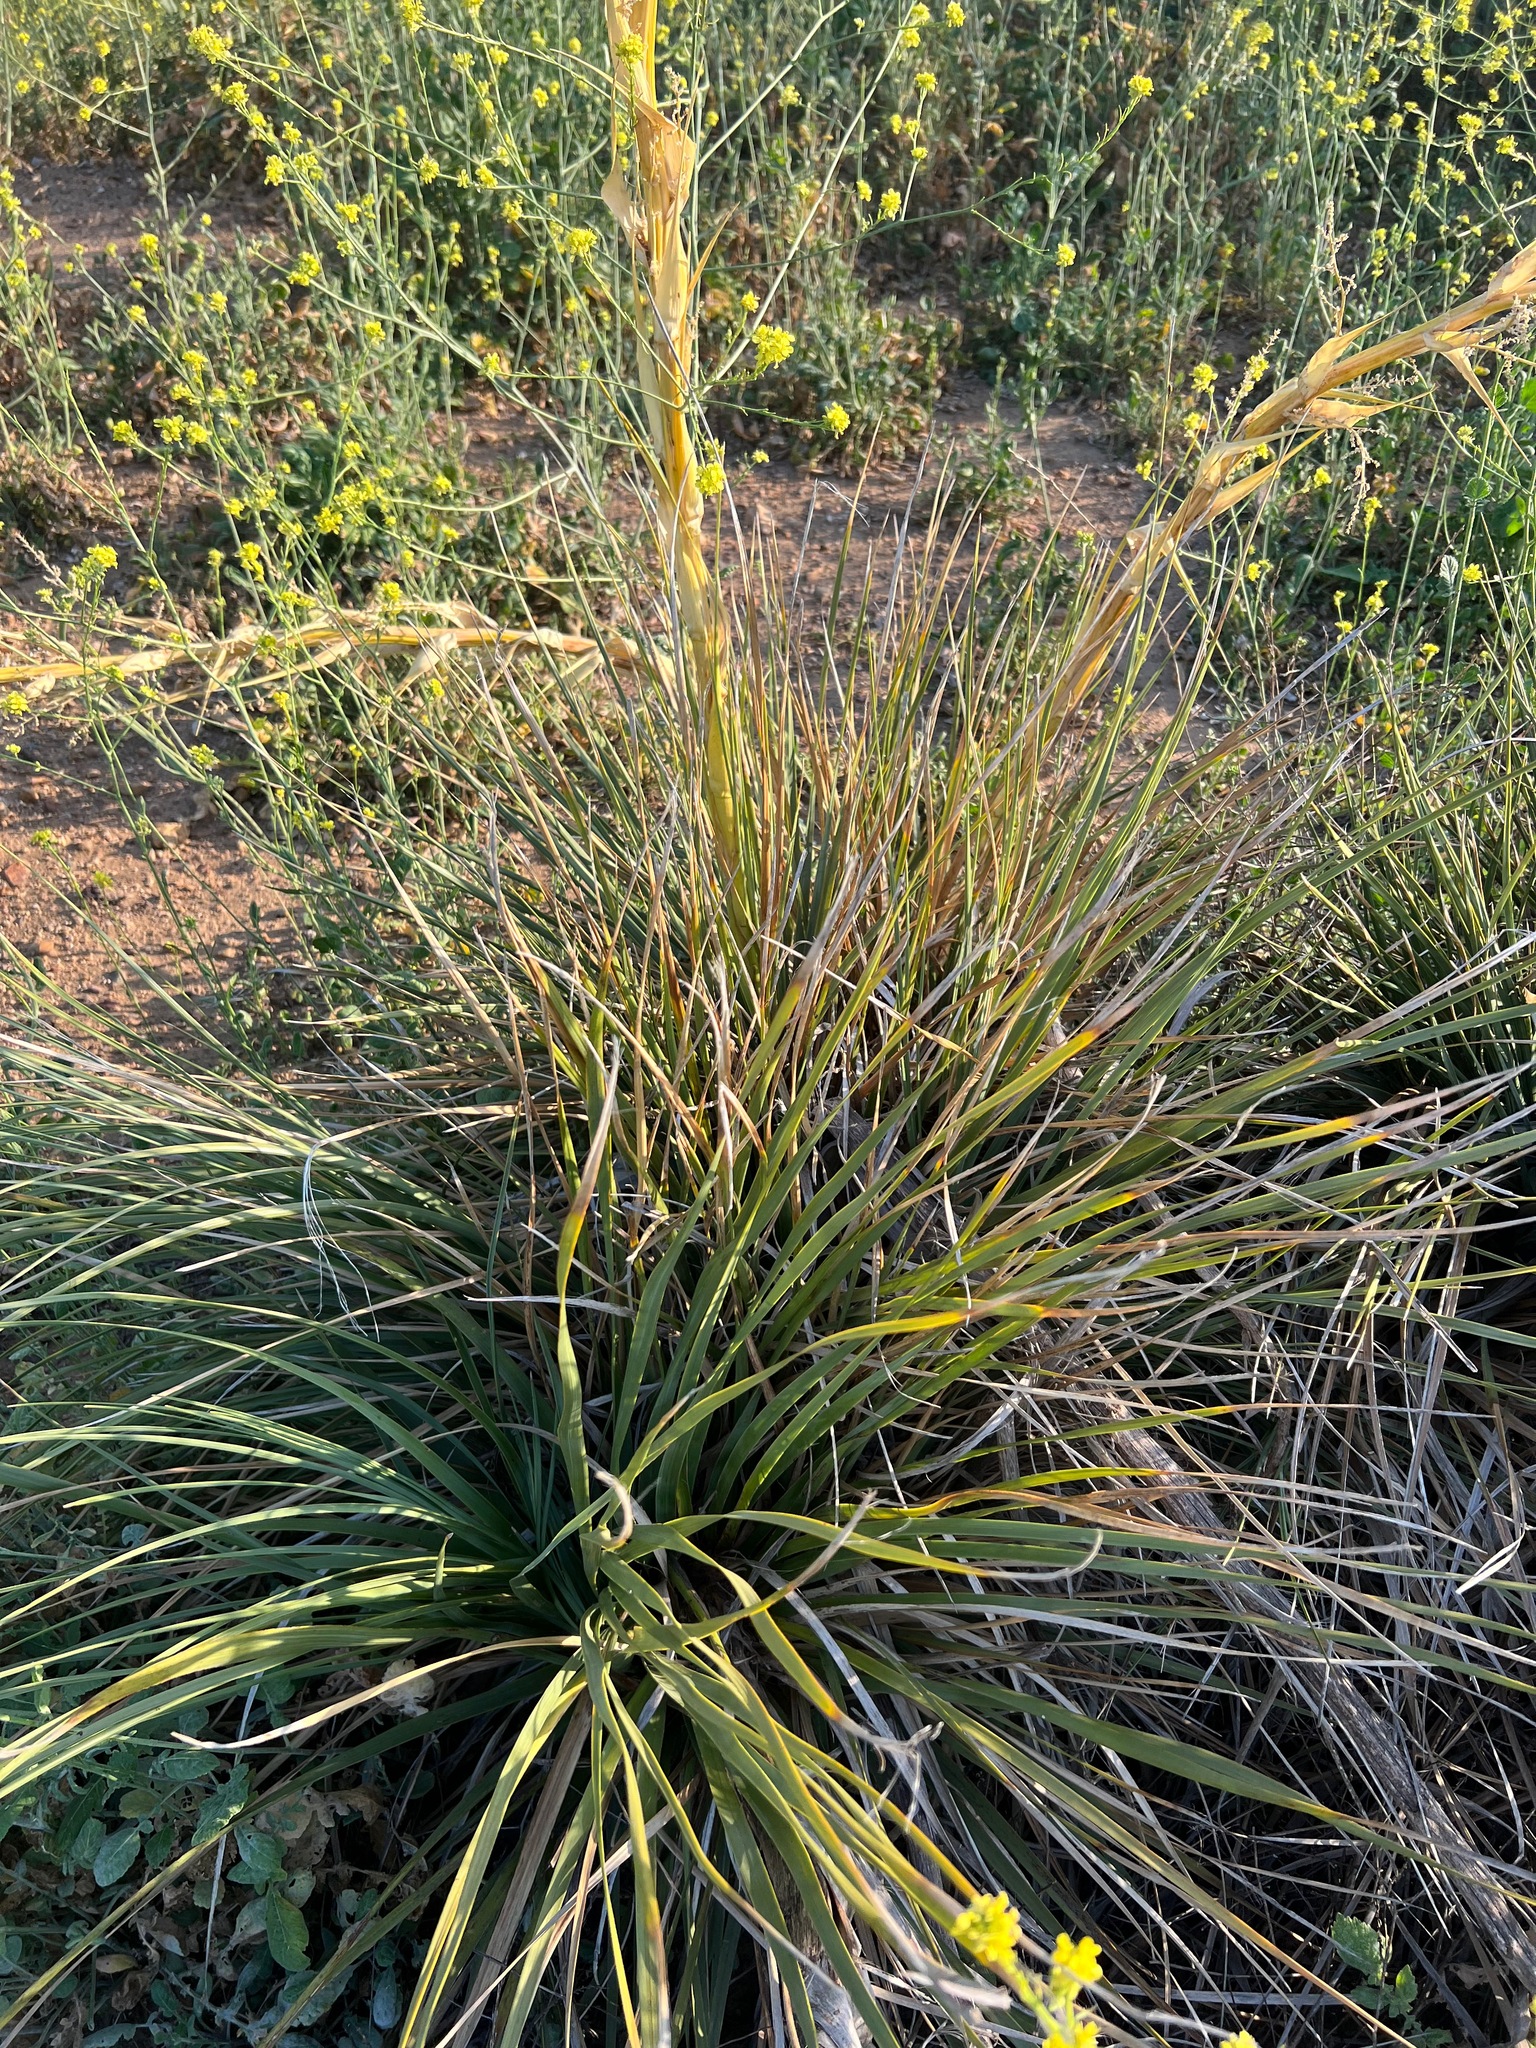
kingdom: Plantae
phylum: Tracheophyta
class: Liliopsida
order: Asparagales
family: Asparagaceae
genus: Nolina
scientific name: Nolina cismontana
